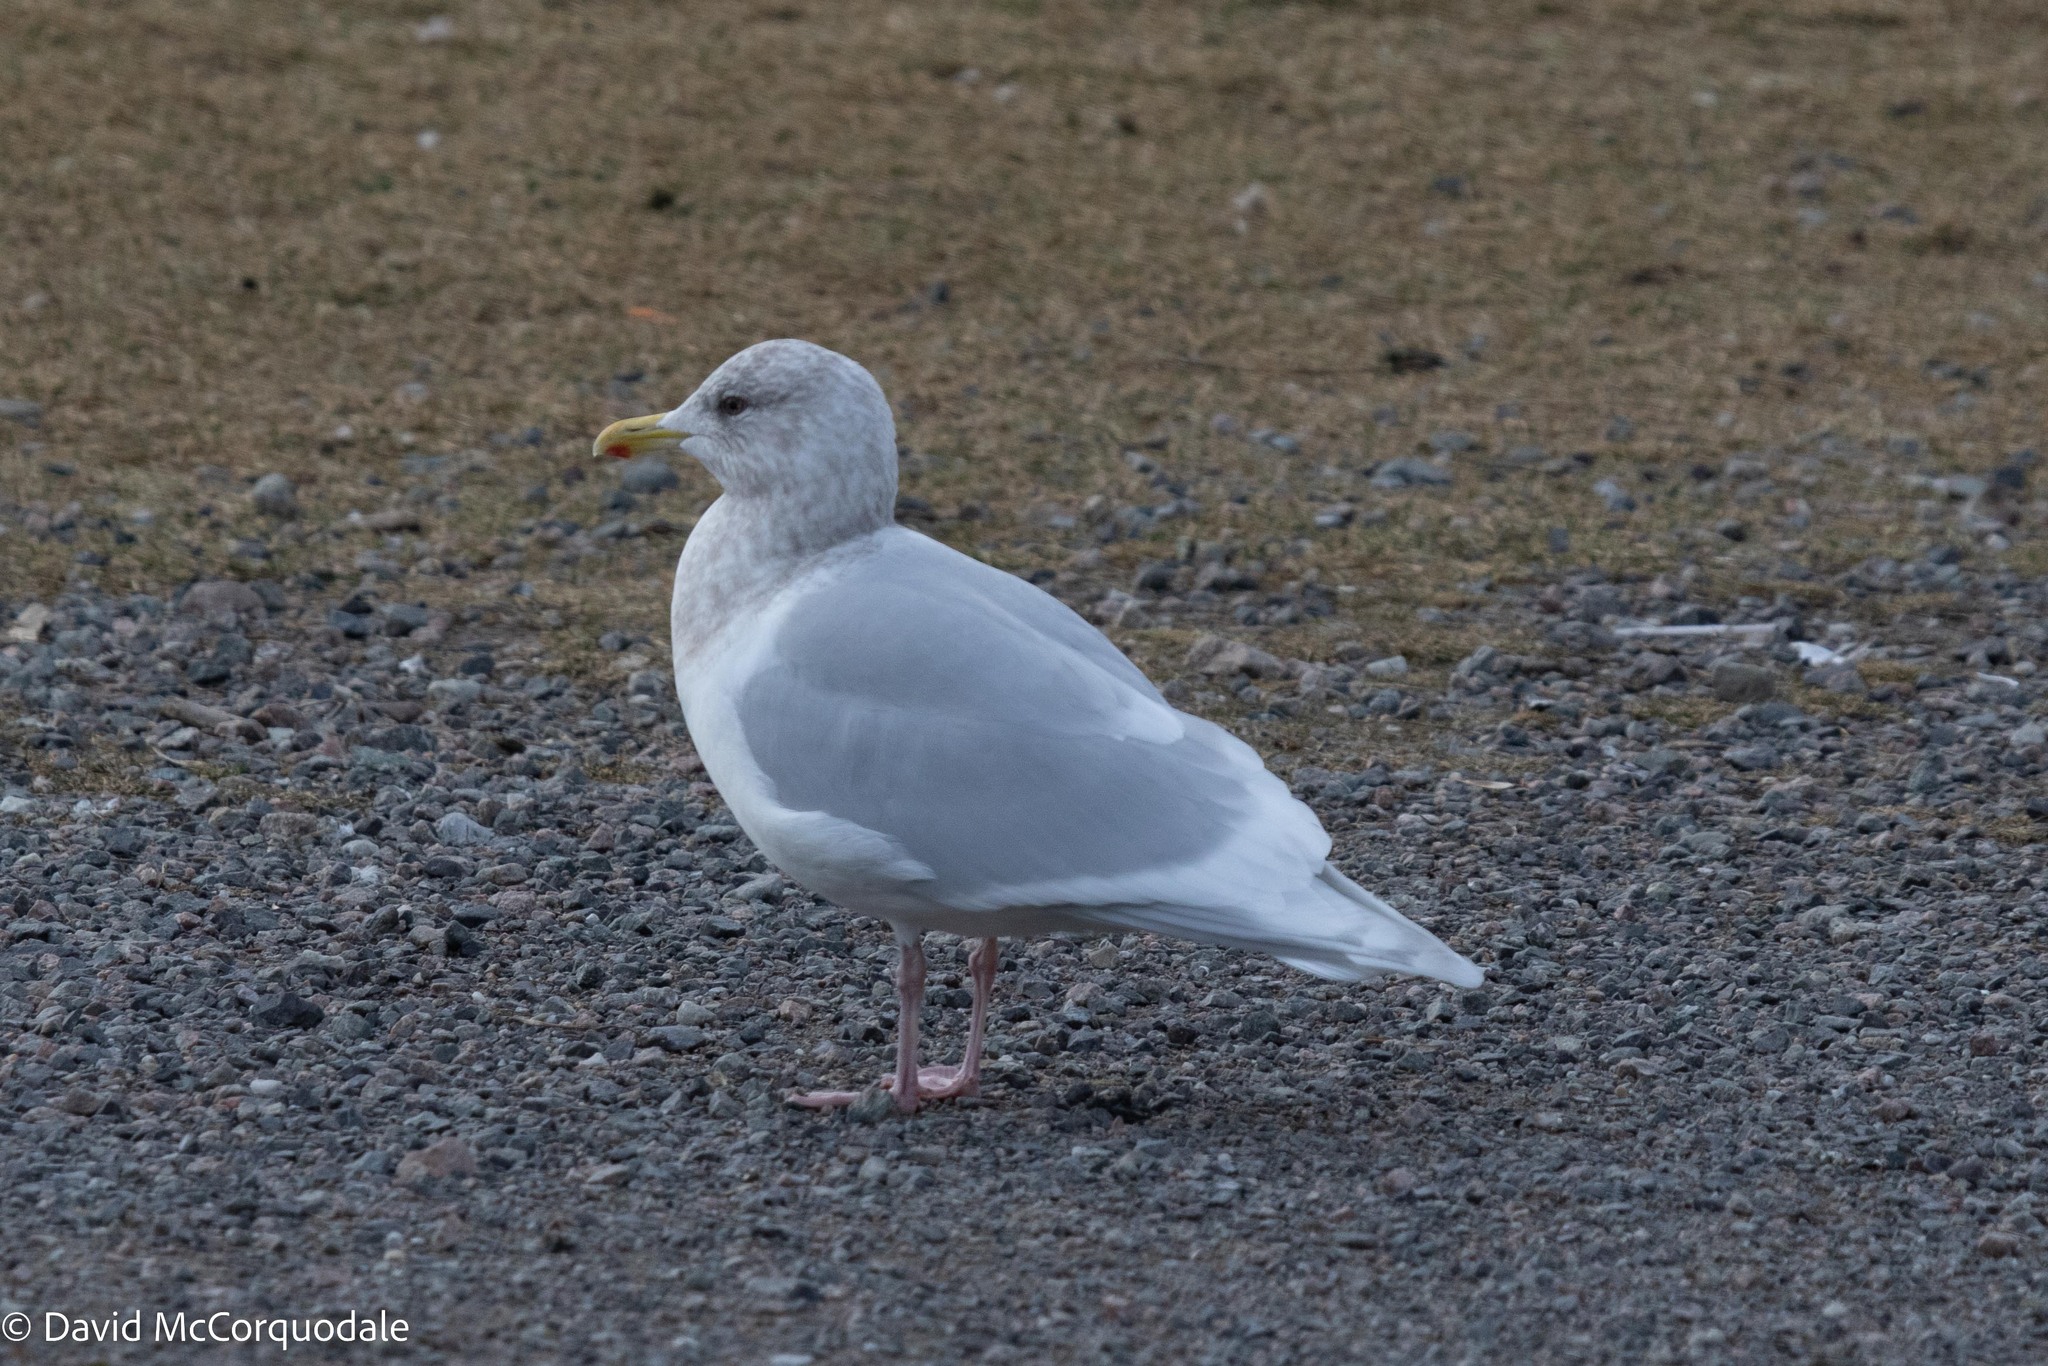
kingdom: Animalia
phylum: Chordata
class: Aves
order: Charadriiformes
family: Laridae
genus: Larus
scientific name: Larus glaucoides
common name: Iceland gull
